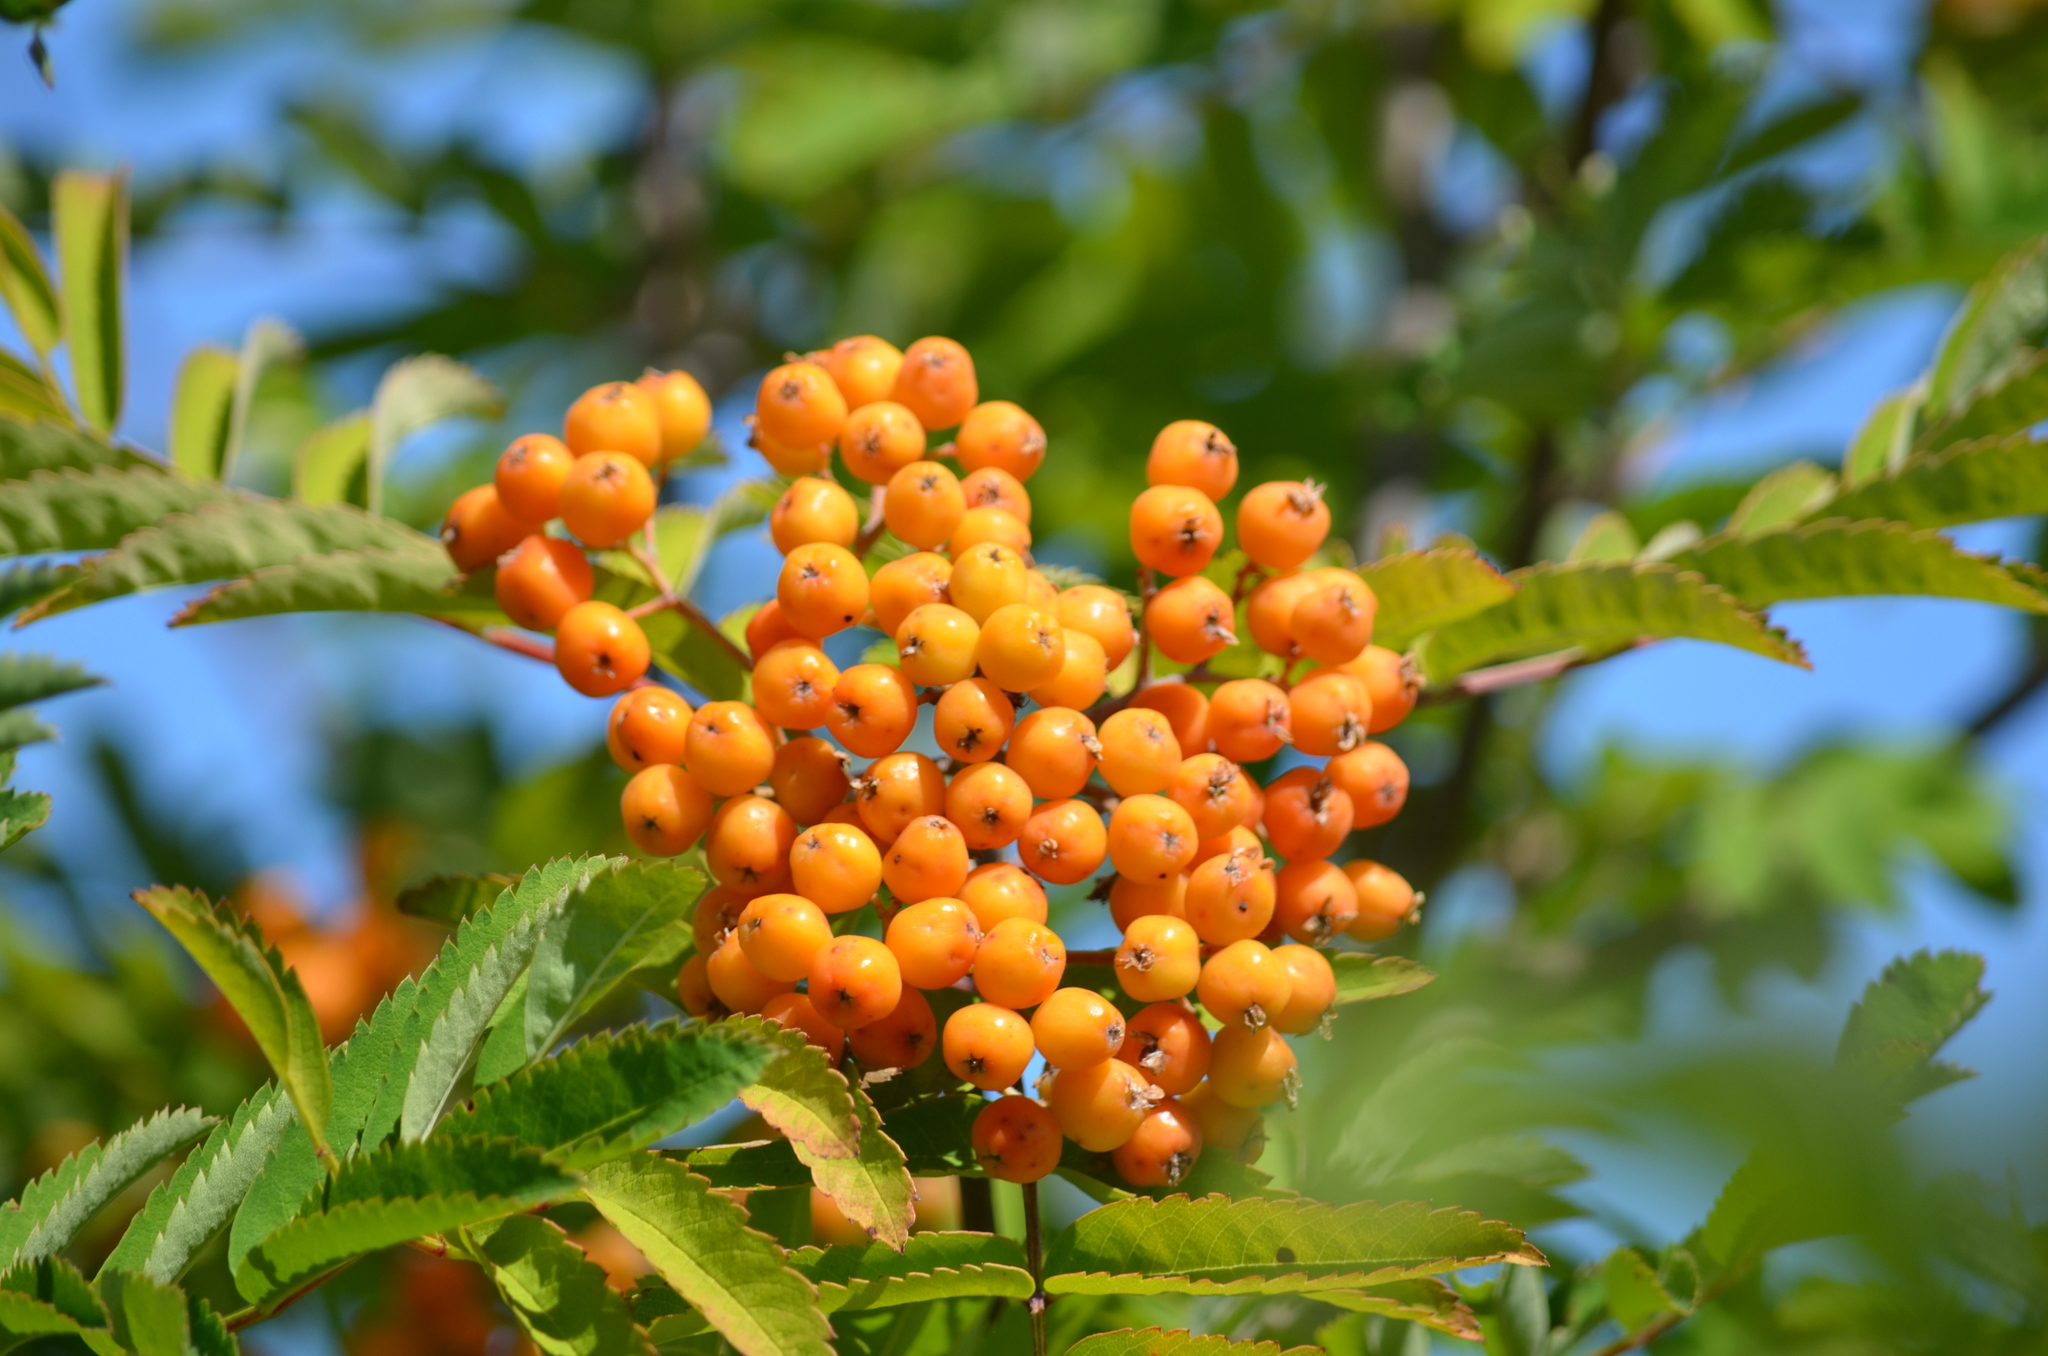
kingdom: Plantae
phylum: Tracheophyta
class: Magnoliopsida
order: Rosales
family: Rosaceae
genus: Sorbus
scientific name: Sorbus aucuparia
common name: Rowan
